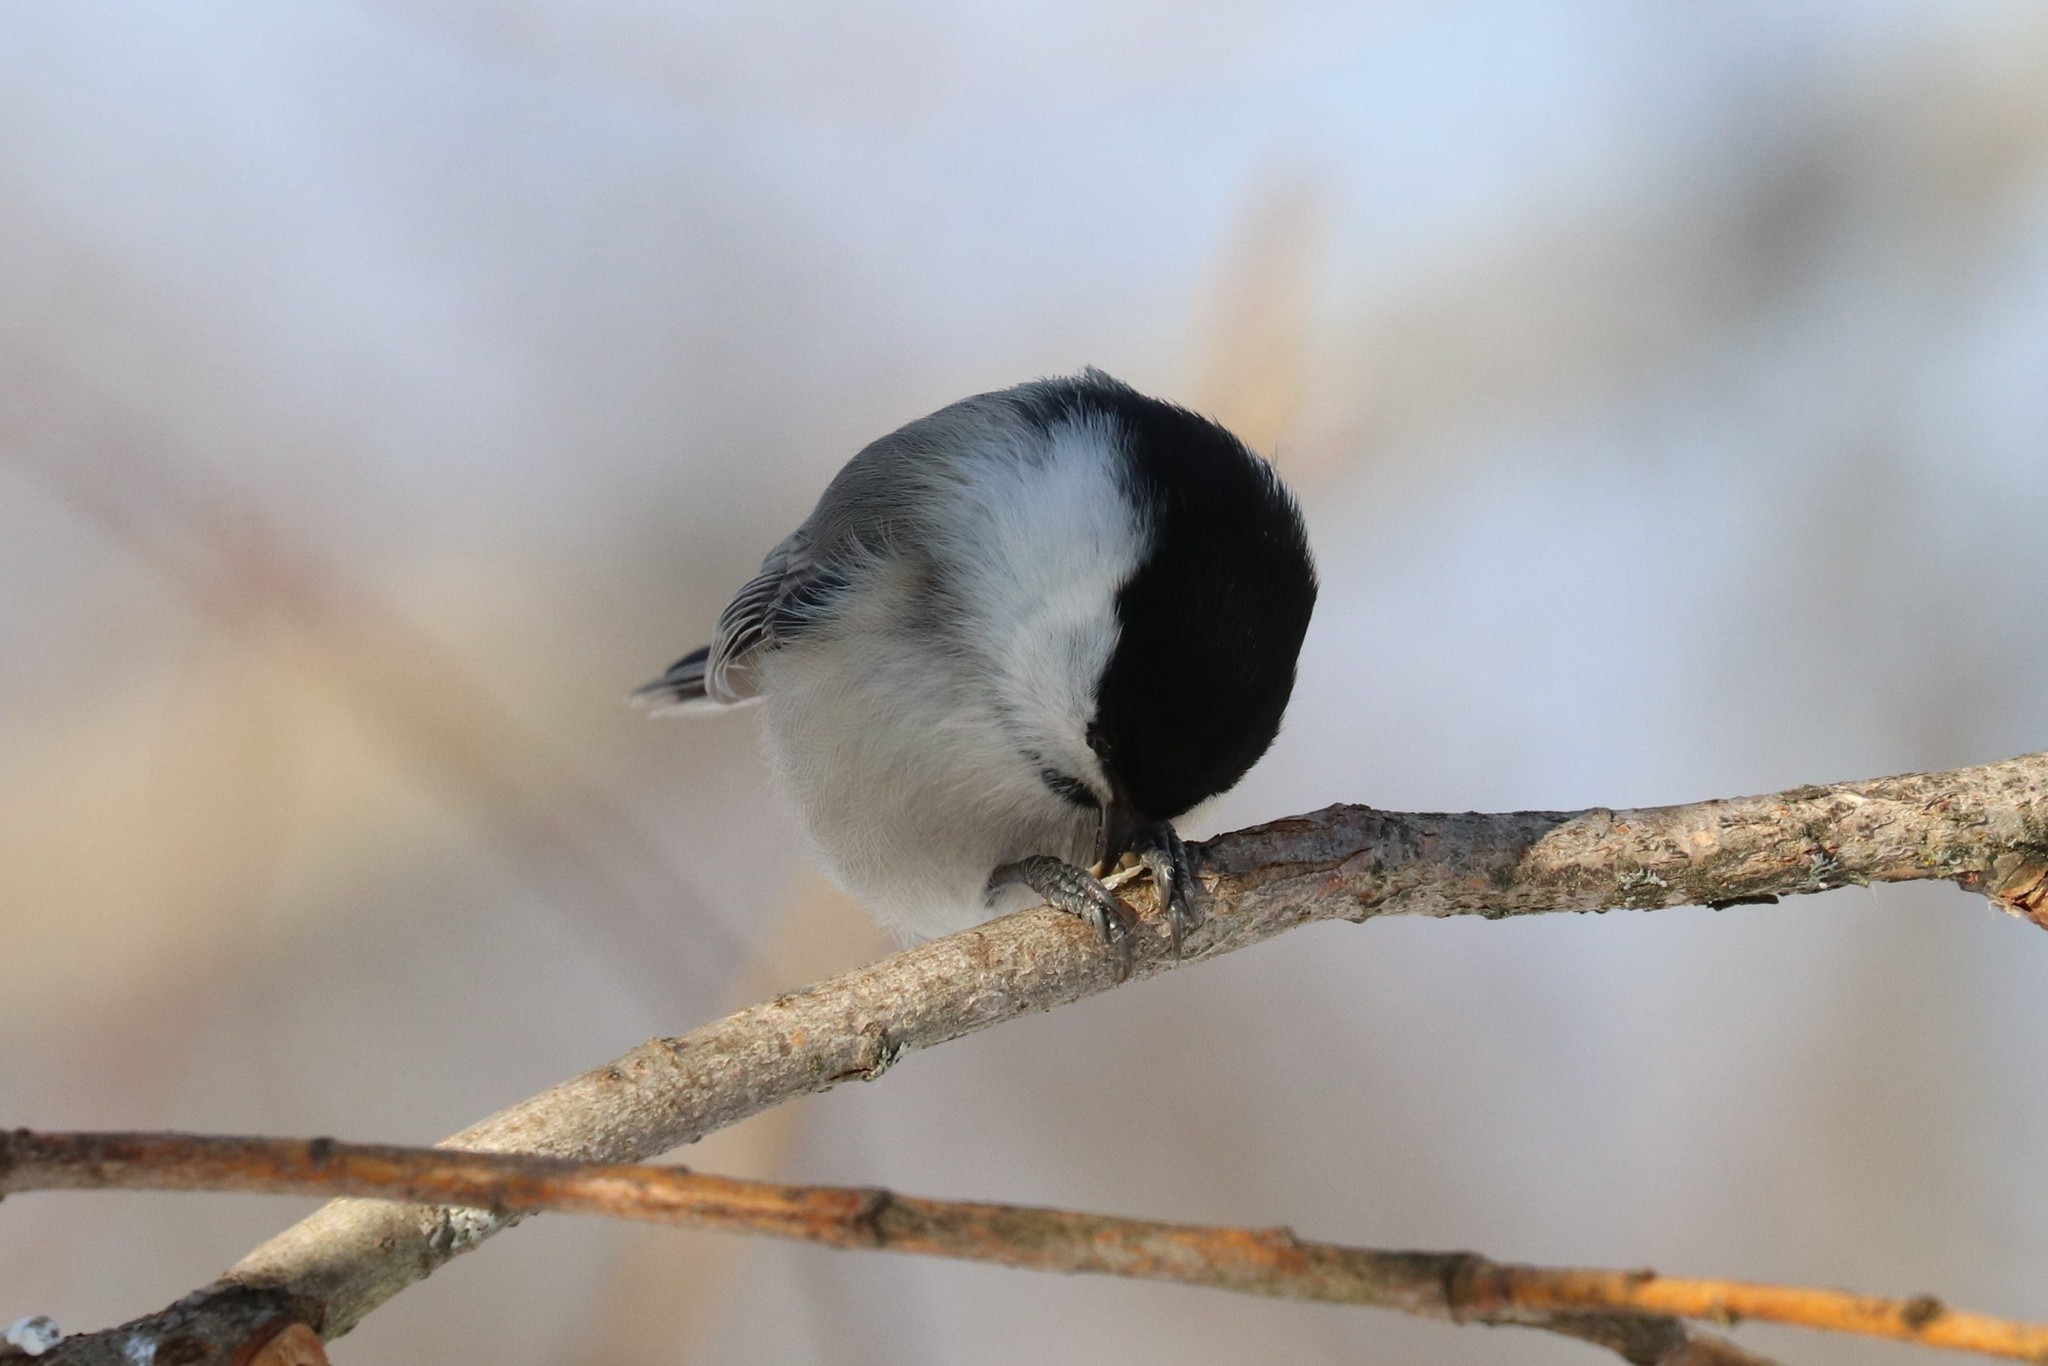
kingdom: Animalia
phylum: Chordata
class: Aves
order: Passeriformes
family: Paridae
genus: Poecile
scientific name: Poecile montanus
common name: Willow tit
